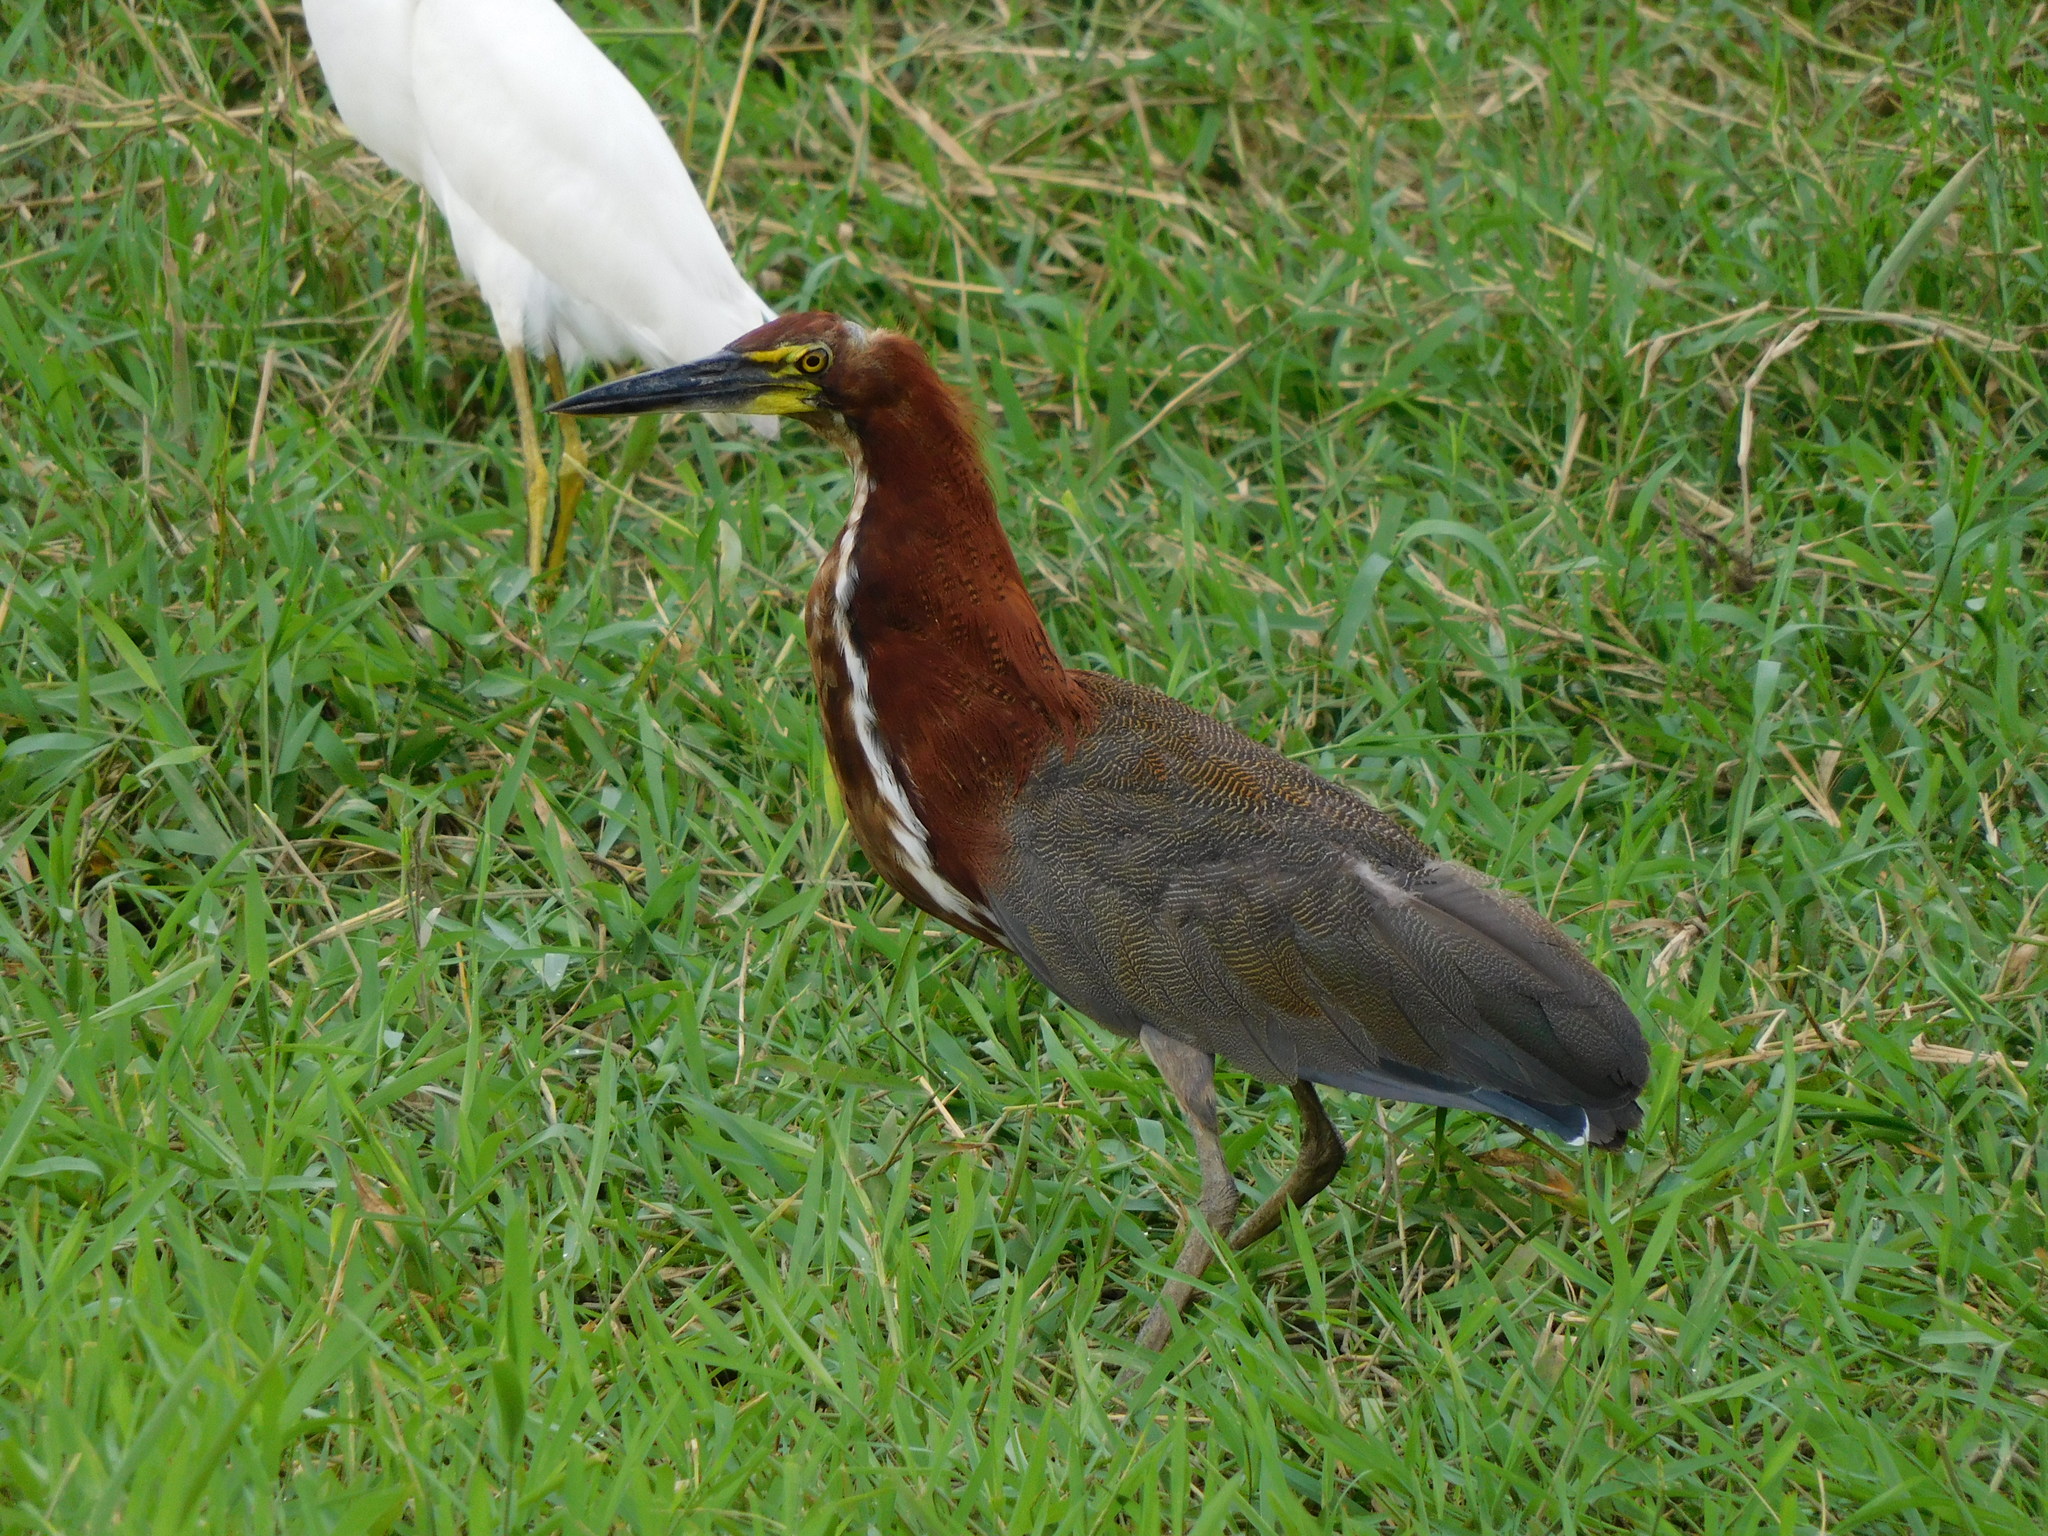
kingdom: Animalia
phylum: Chordata
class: Aves
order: Pelecaniformes
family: Ardeidae
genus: Tigrisoma
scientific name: Tigrisoma lineatum
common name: Rufescent tiger-heron
